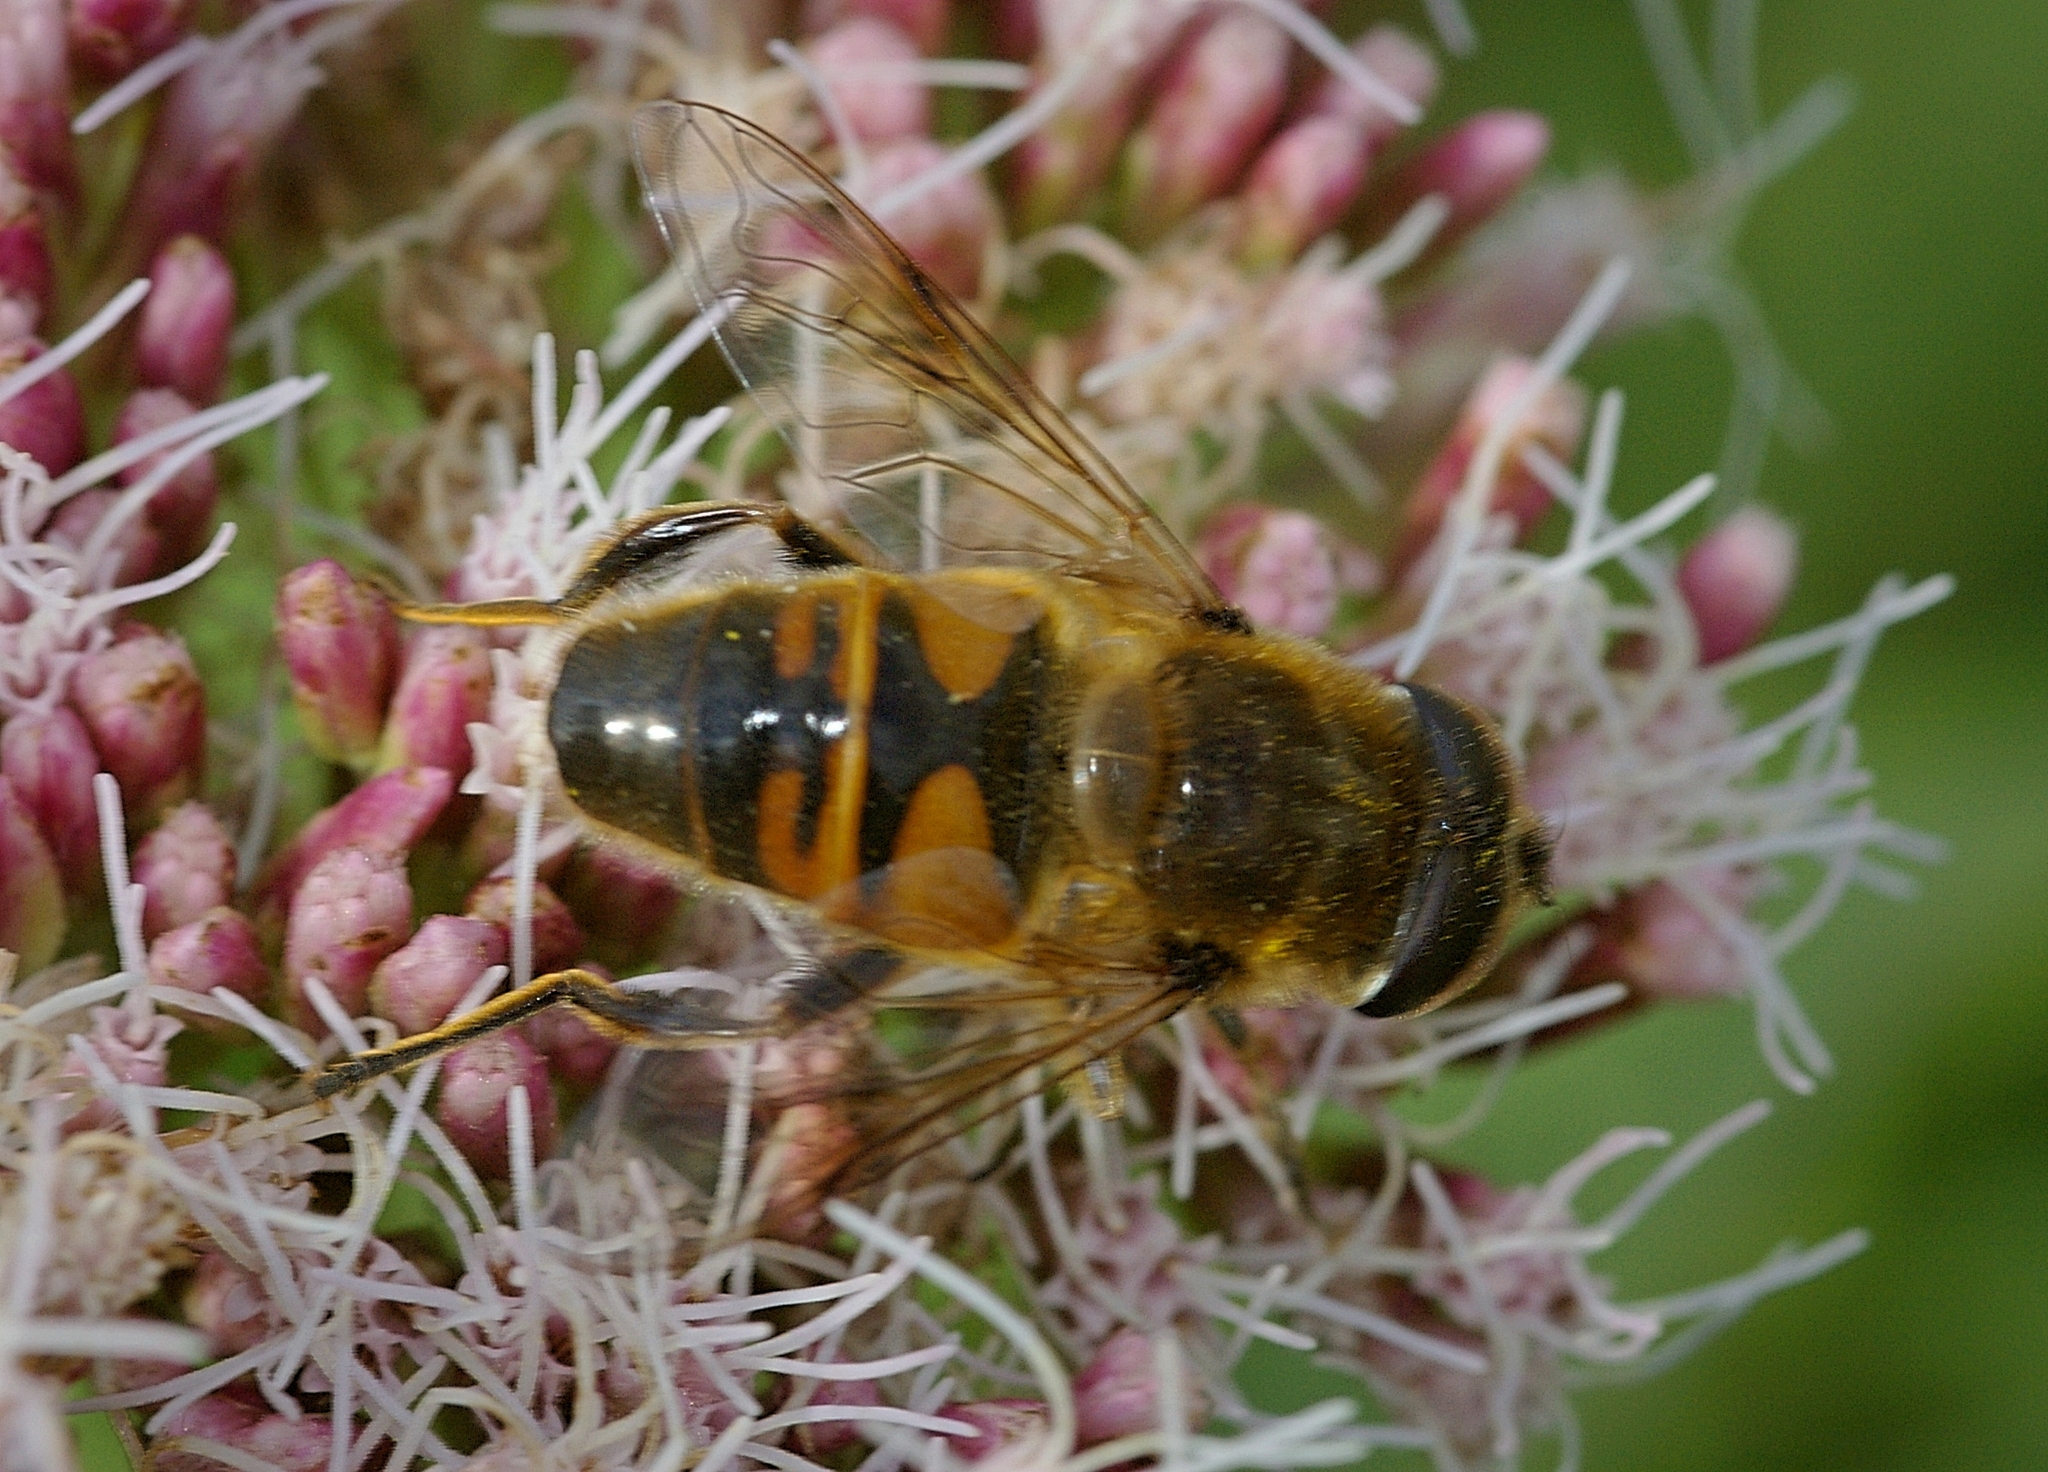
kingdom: Animalia
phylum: Arthropoda
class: Insecta
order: Diptera
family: Syrphidae
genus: Eristalis
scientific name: Eristalis tenax
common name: Drone fly
